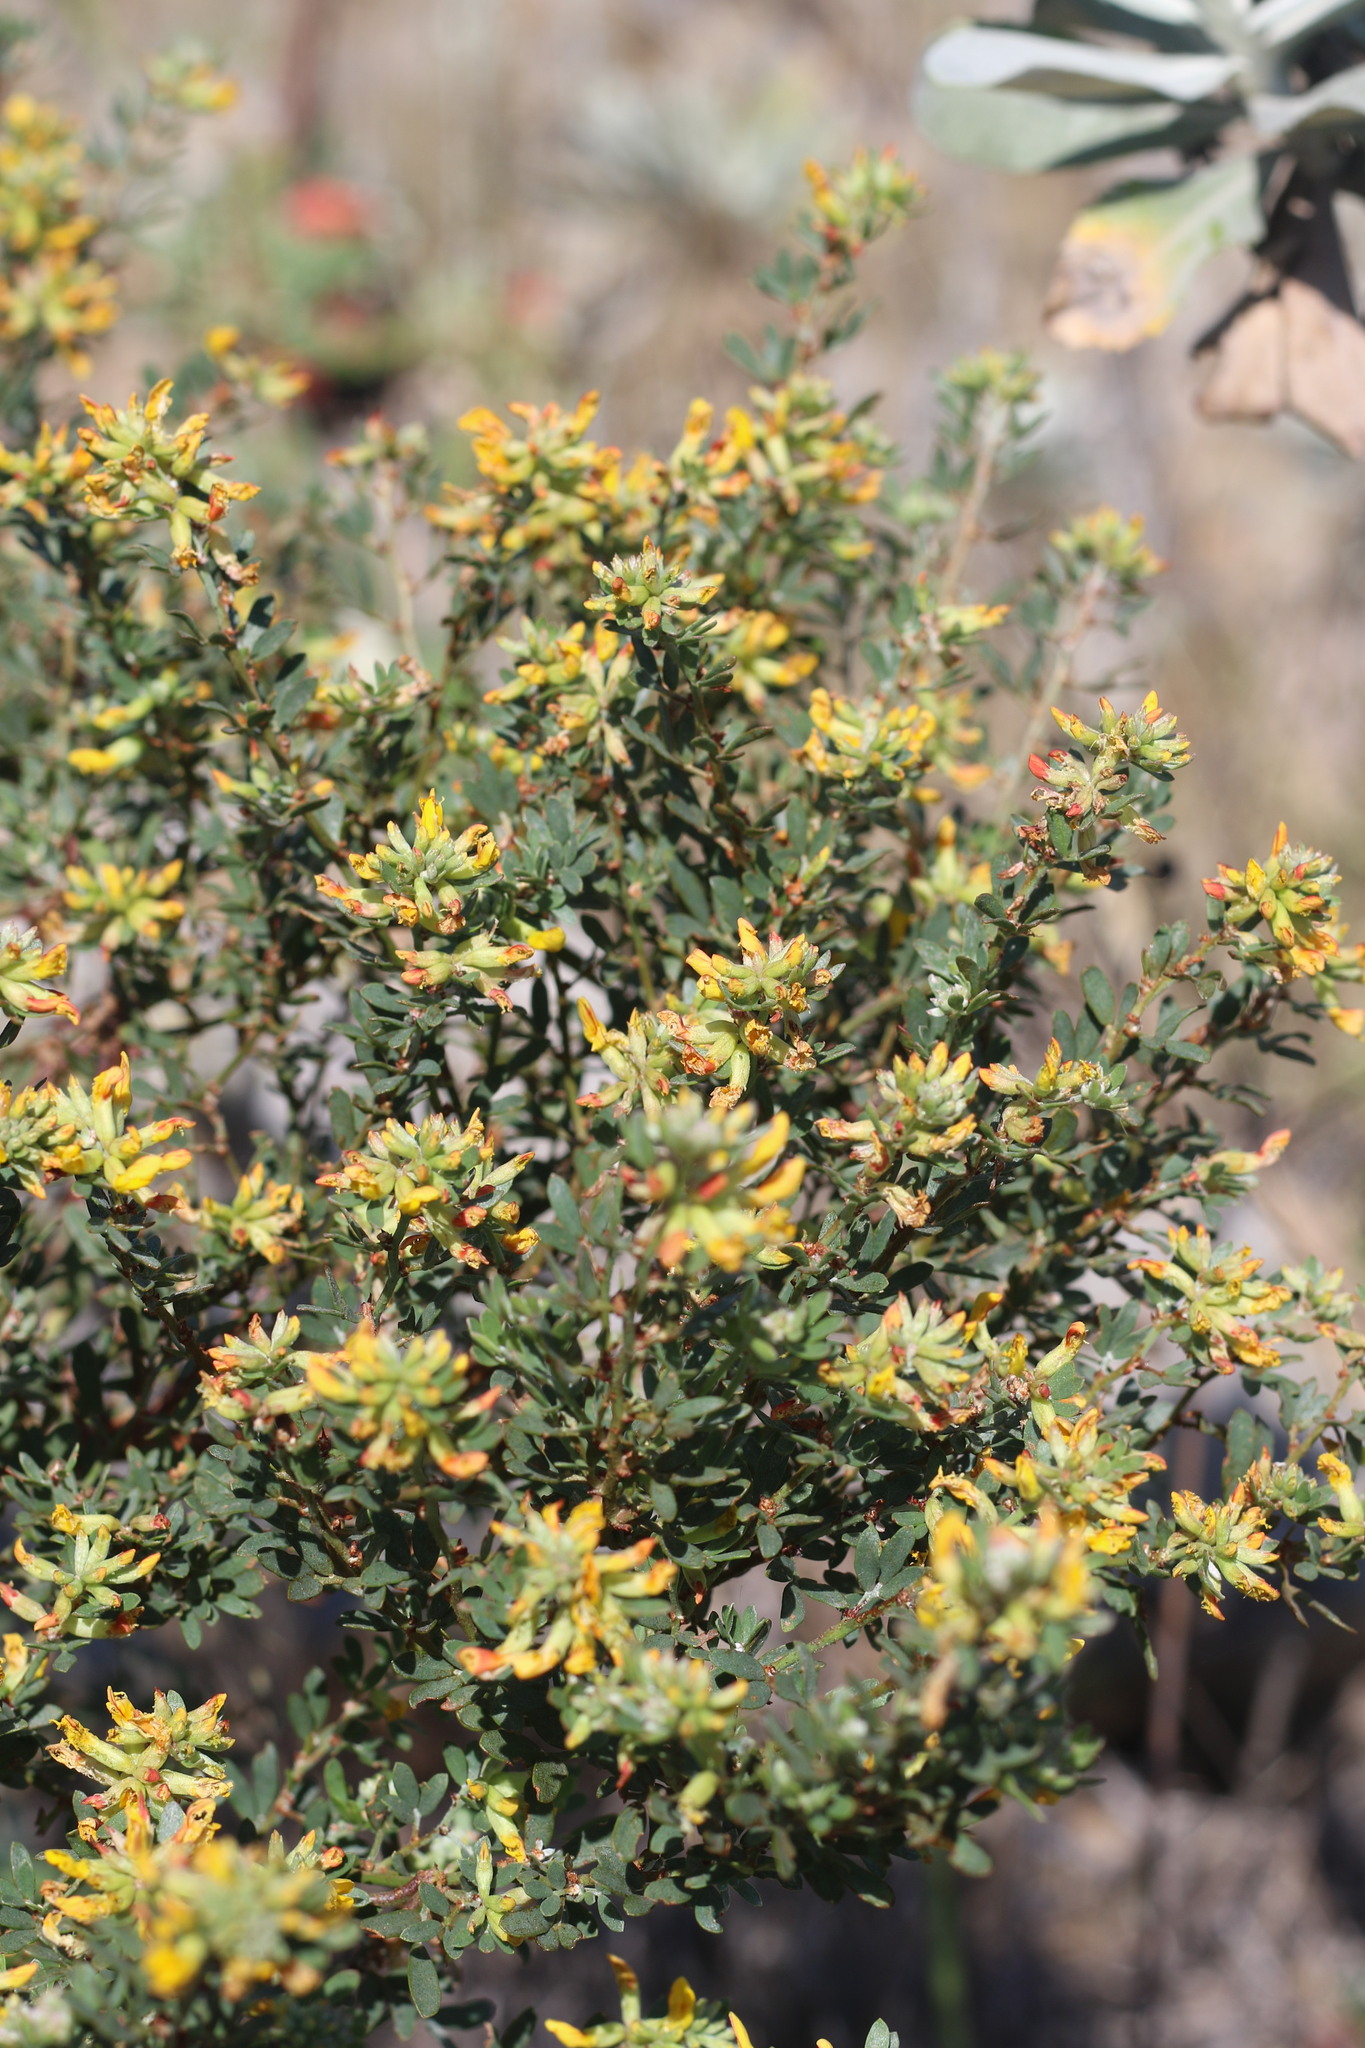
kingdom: Plantae
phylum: Tracheophyta
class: Magnoliopsida
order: Fabales
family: Fabaceae
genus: Acmispon
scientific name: Acmispon dendroideus
